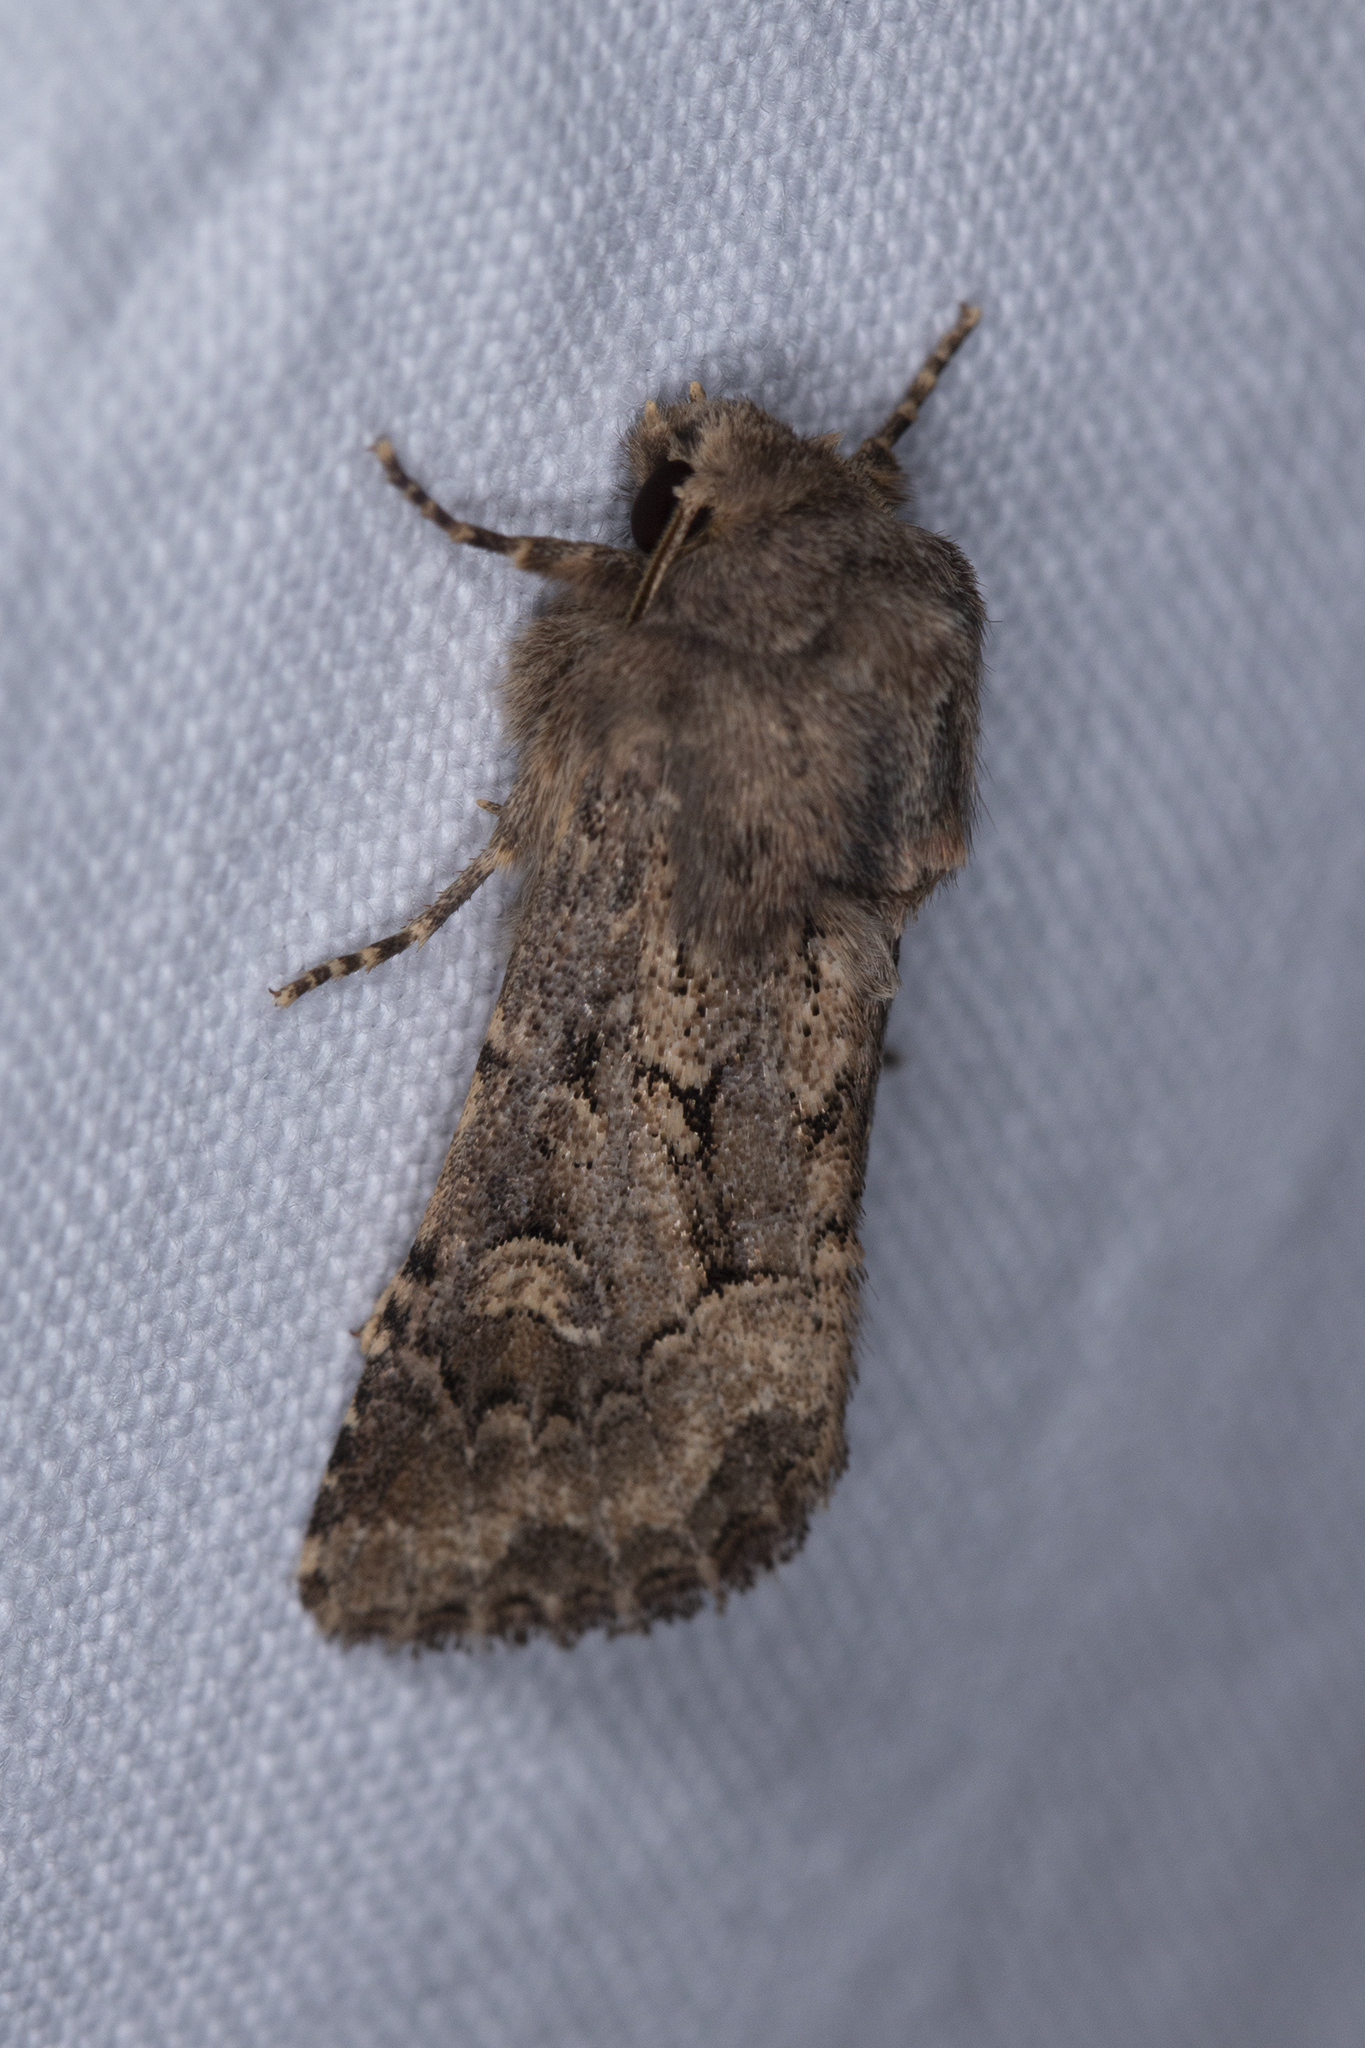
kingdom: Animalia
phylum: Arthropoda
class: Insecta
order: Lepidoptera
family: Noctuidae
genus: Luperina
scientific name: Luperina testacea
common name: Flounced rustic
